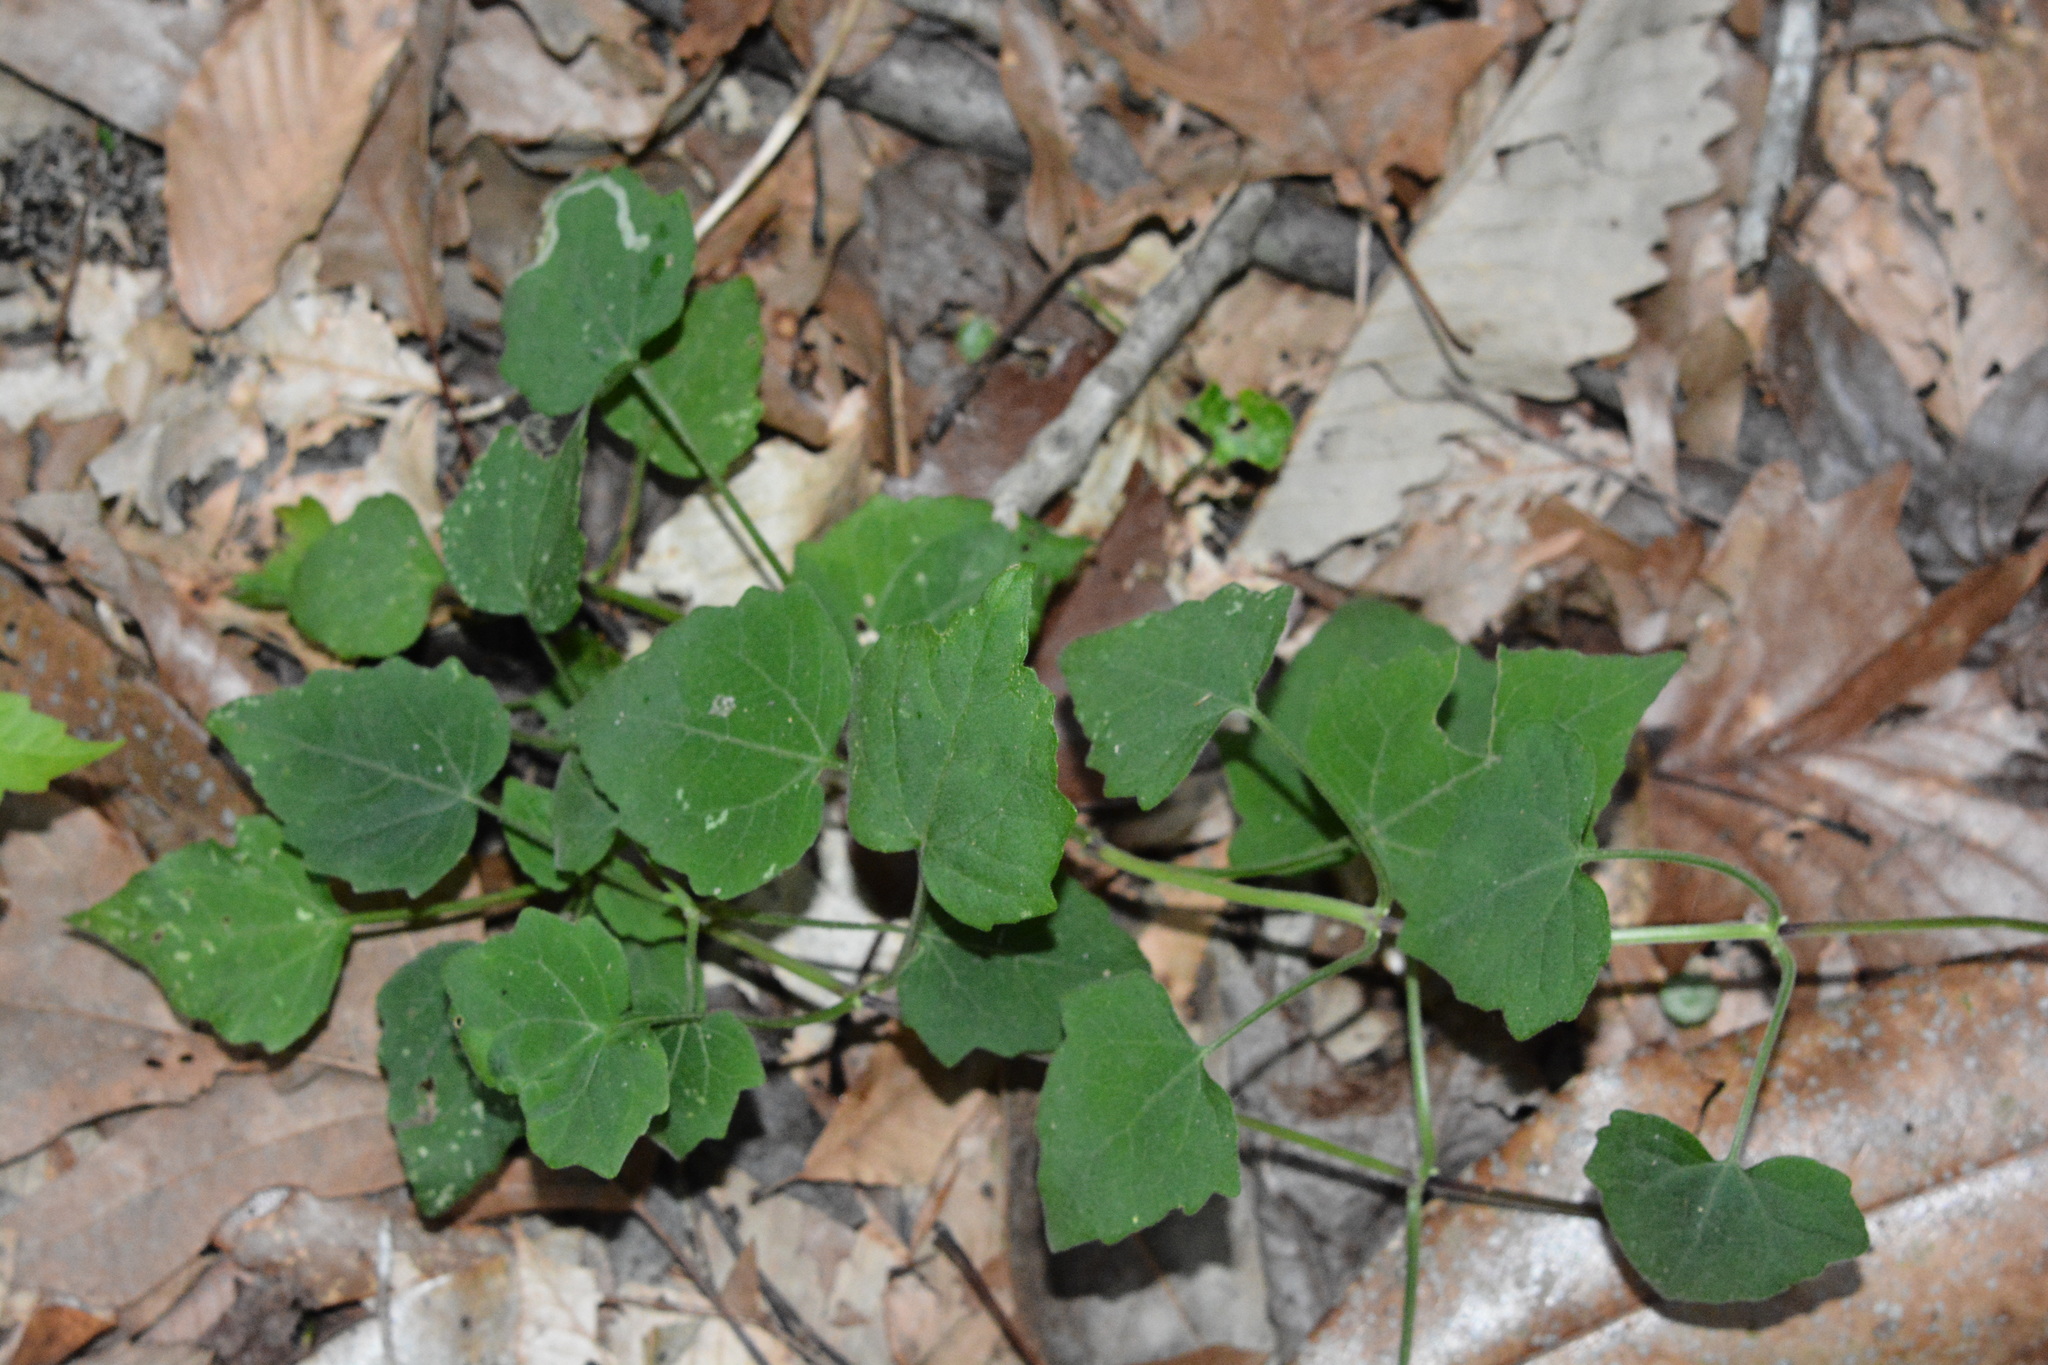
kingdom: Plantae
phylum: Tracheophyta
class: Magnoliopsida
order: Asterales
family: Asteraceae
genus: Mikania
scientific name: Mikania cordifolia
